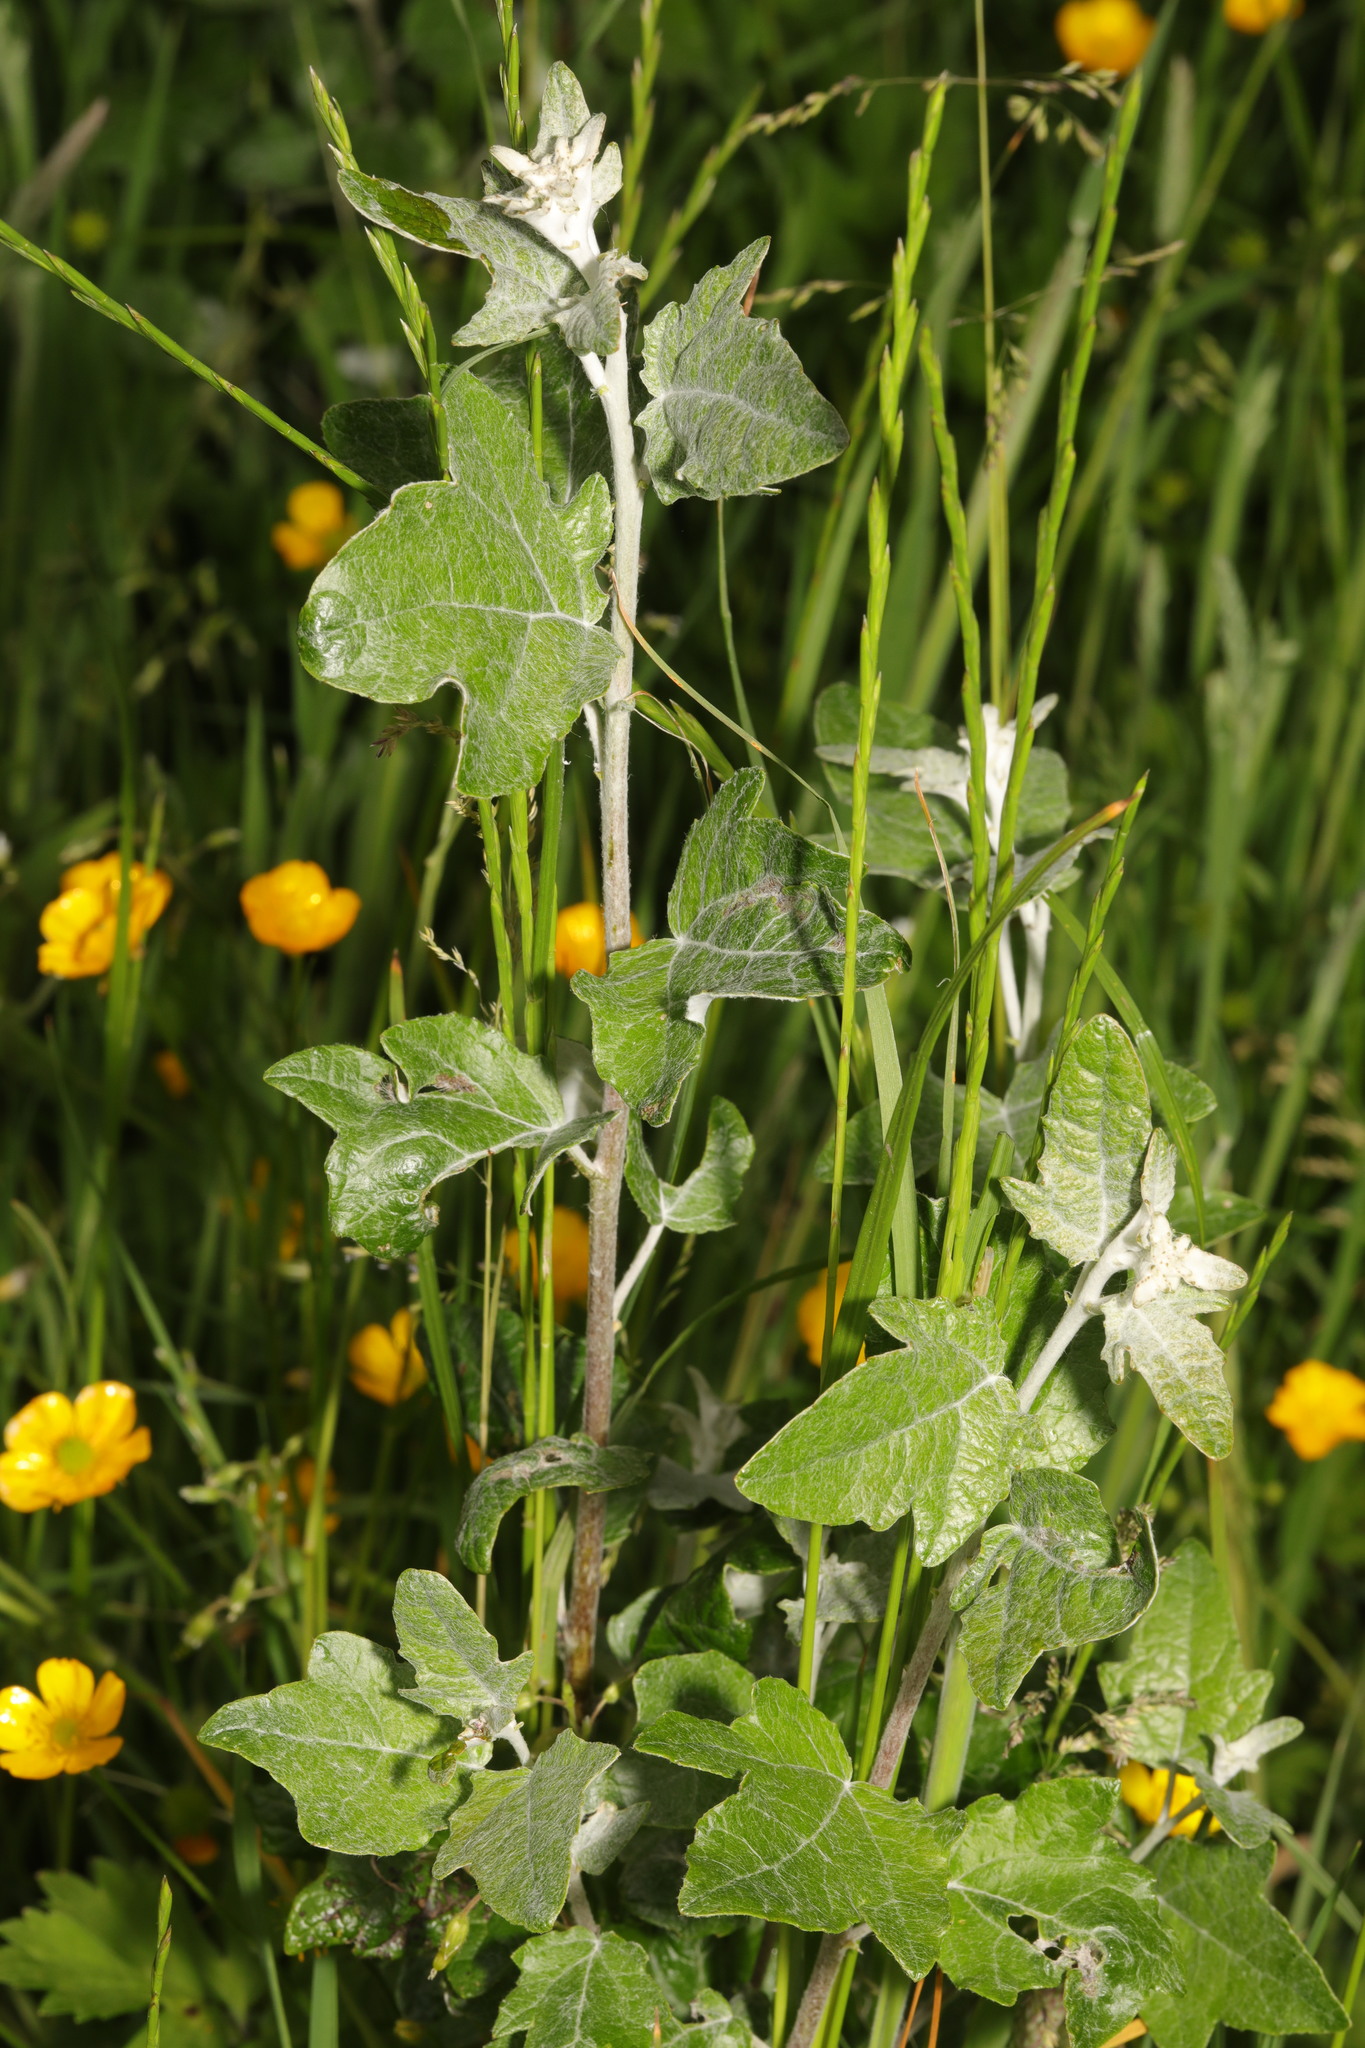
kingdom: Plantae
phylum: Tracheophyta
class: Magnoliopsida
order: Malpighiales
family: Salicaceae
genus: Populus
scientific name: Populus alba
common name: White poplar
